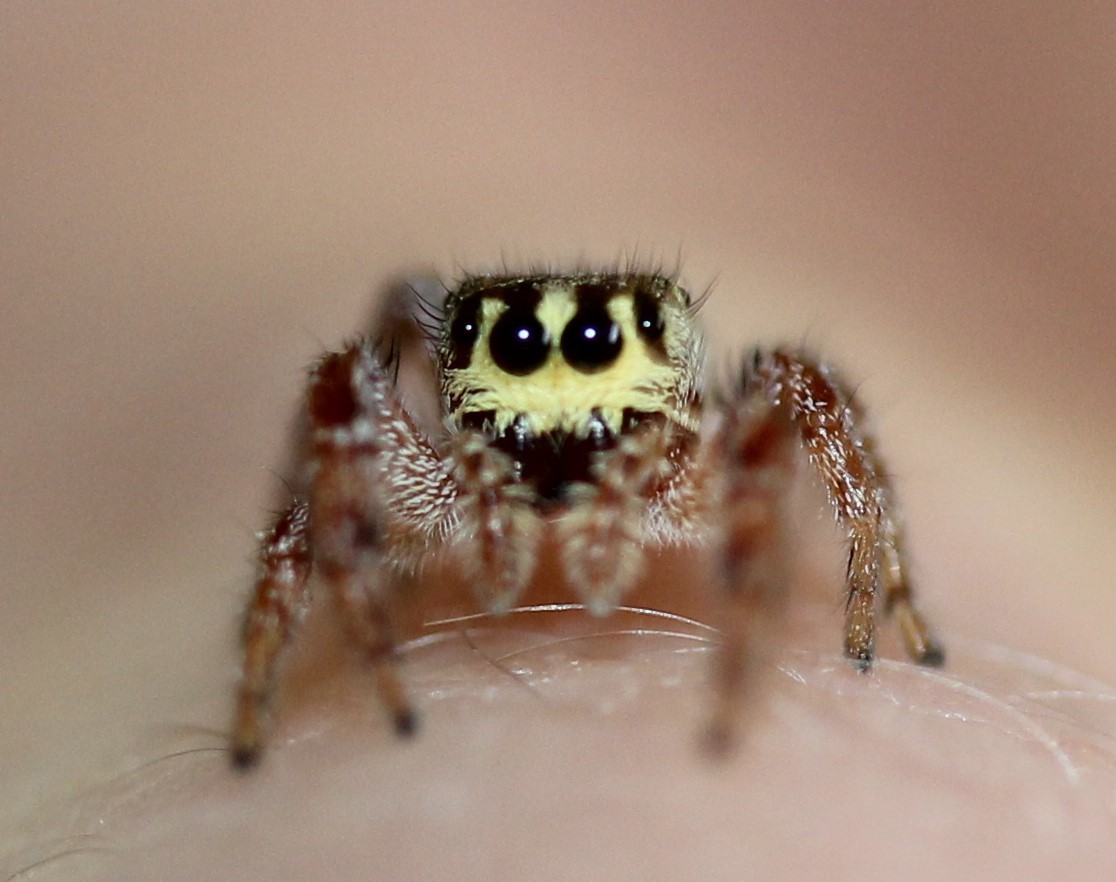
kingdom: Animalia
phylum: Arthropoda
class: Arachnida
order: Araneae
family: Salticidae
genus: Eris
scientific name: Eris floridana
